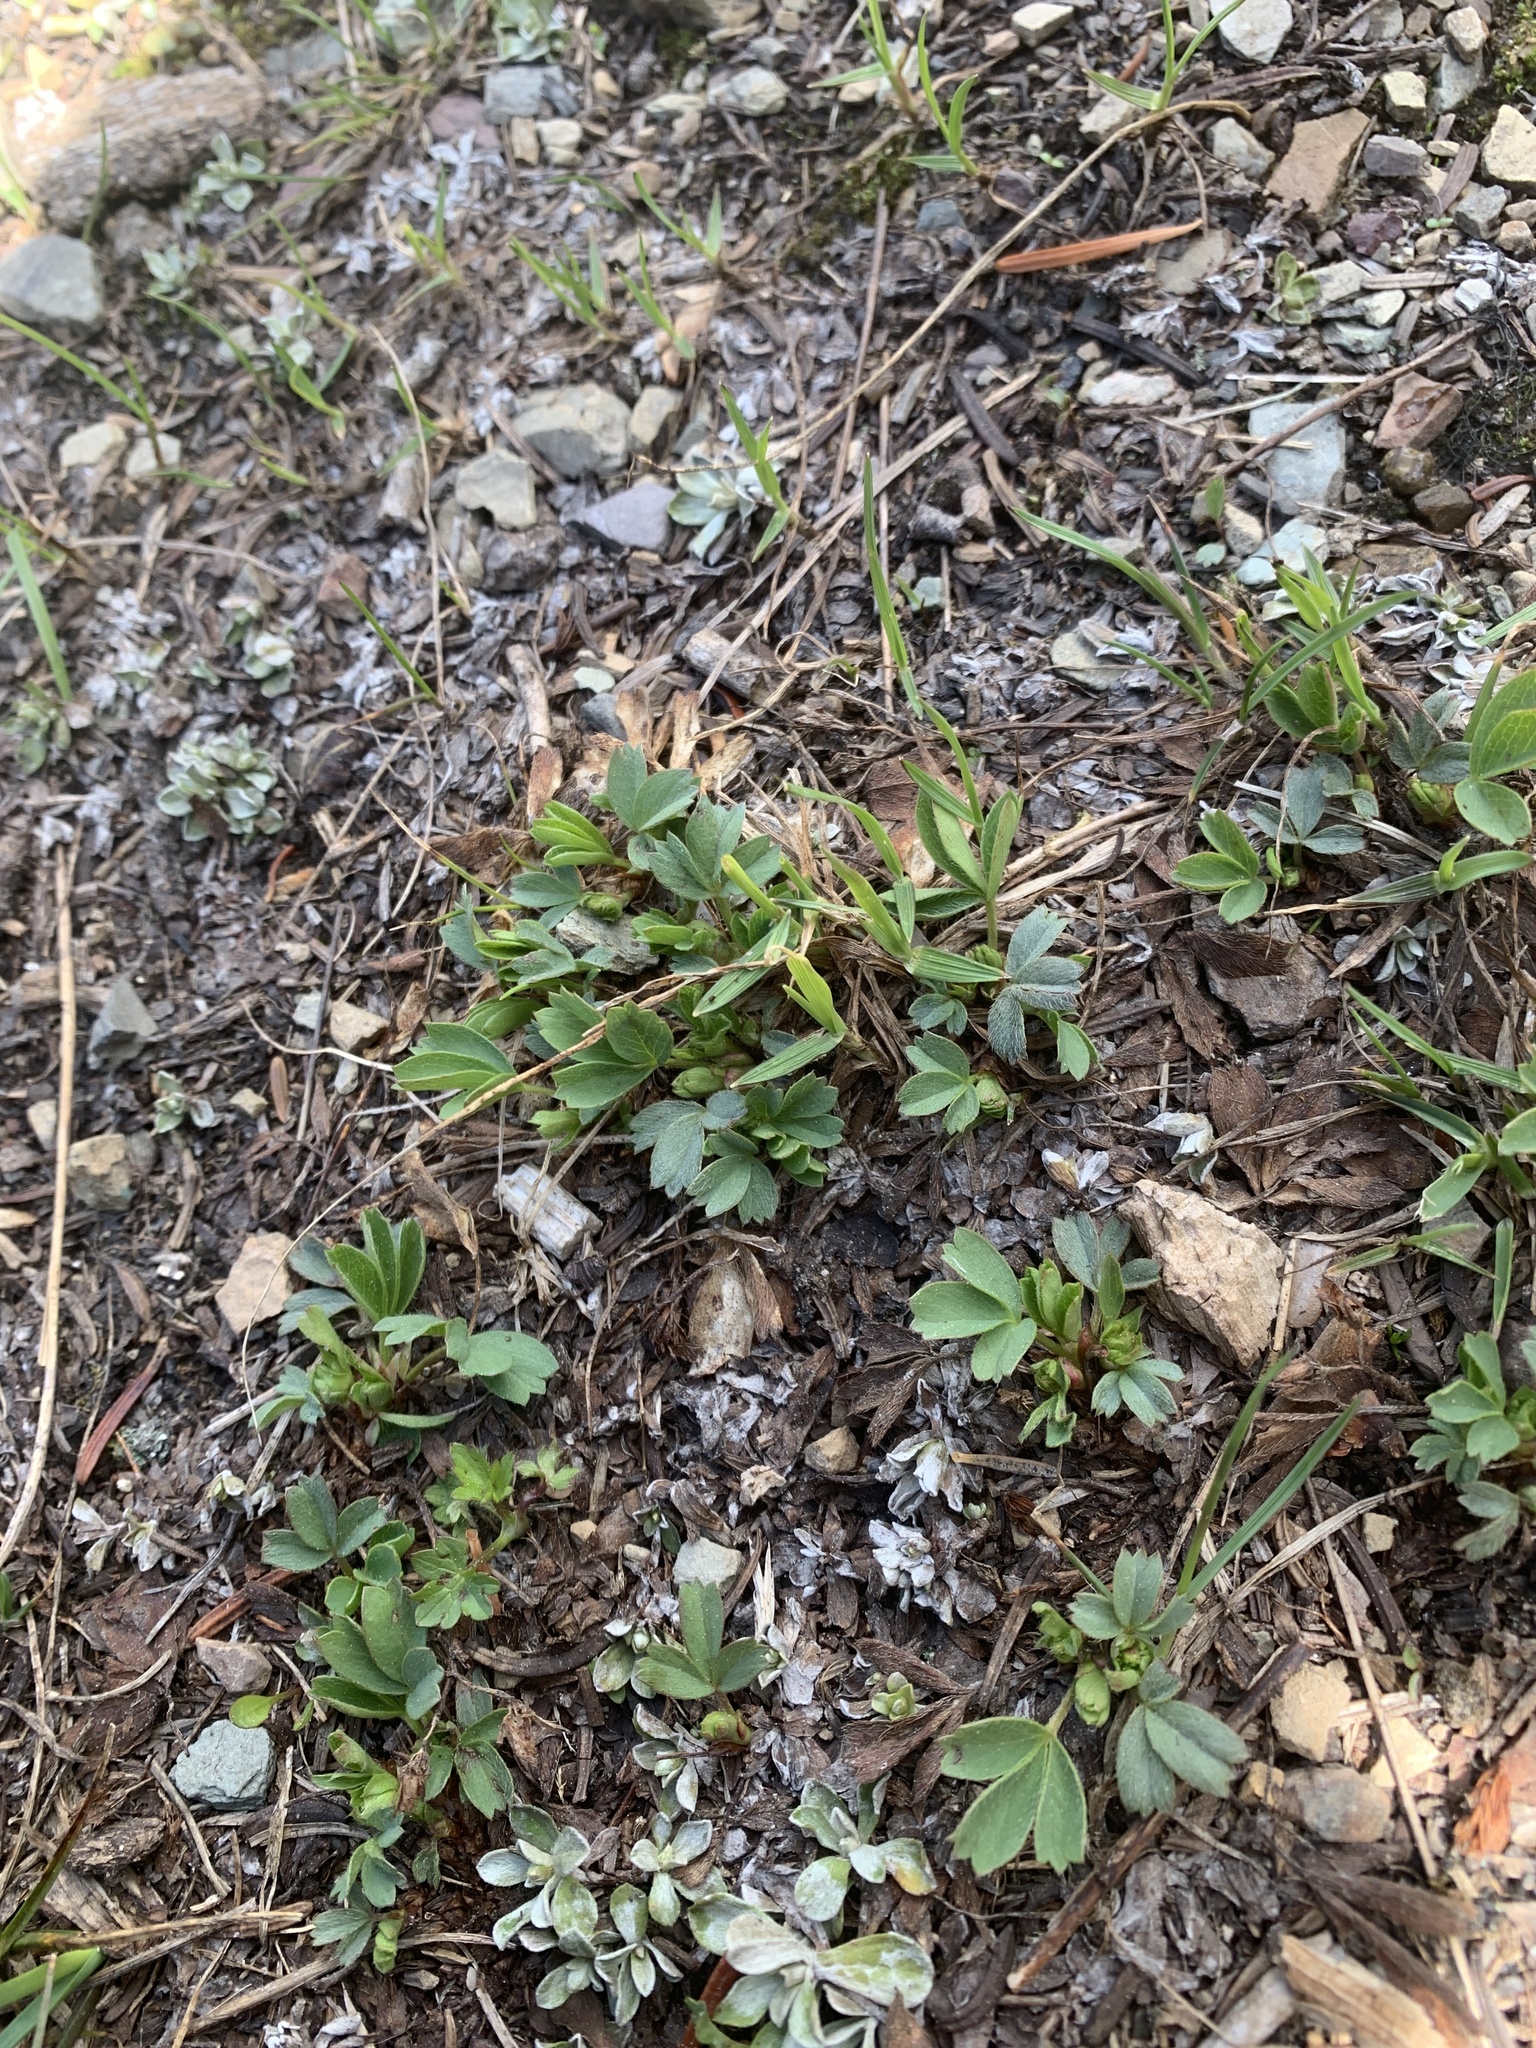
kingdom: Plantae
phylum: Tracheophyta
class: Magnoliopsida
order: Rosales
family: Rosaceae
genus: Sibbaldia
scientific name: Sibbaldia procumbens
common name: Creeping sibbaldia
